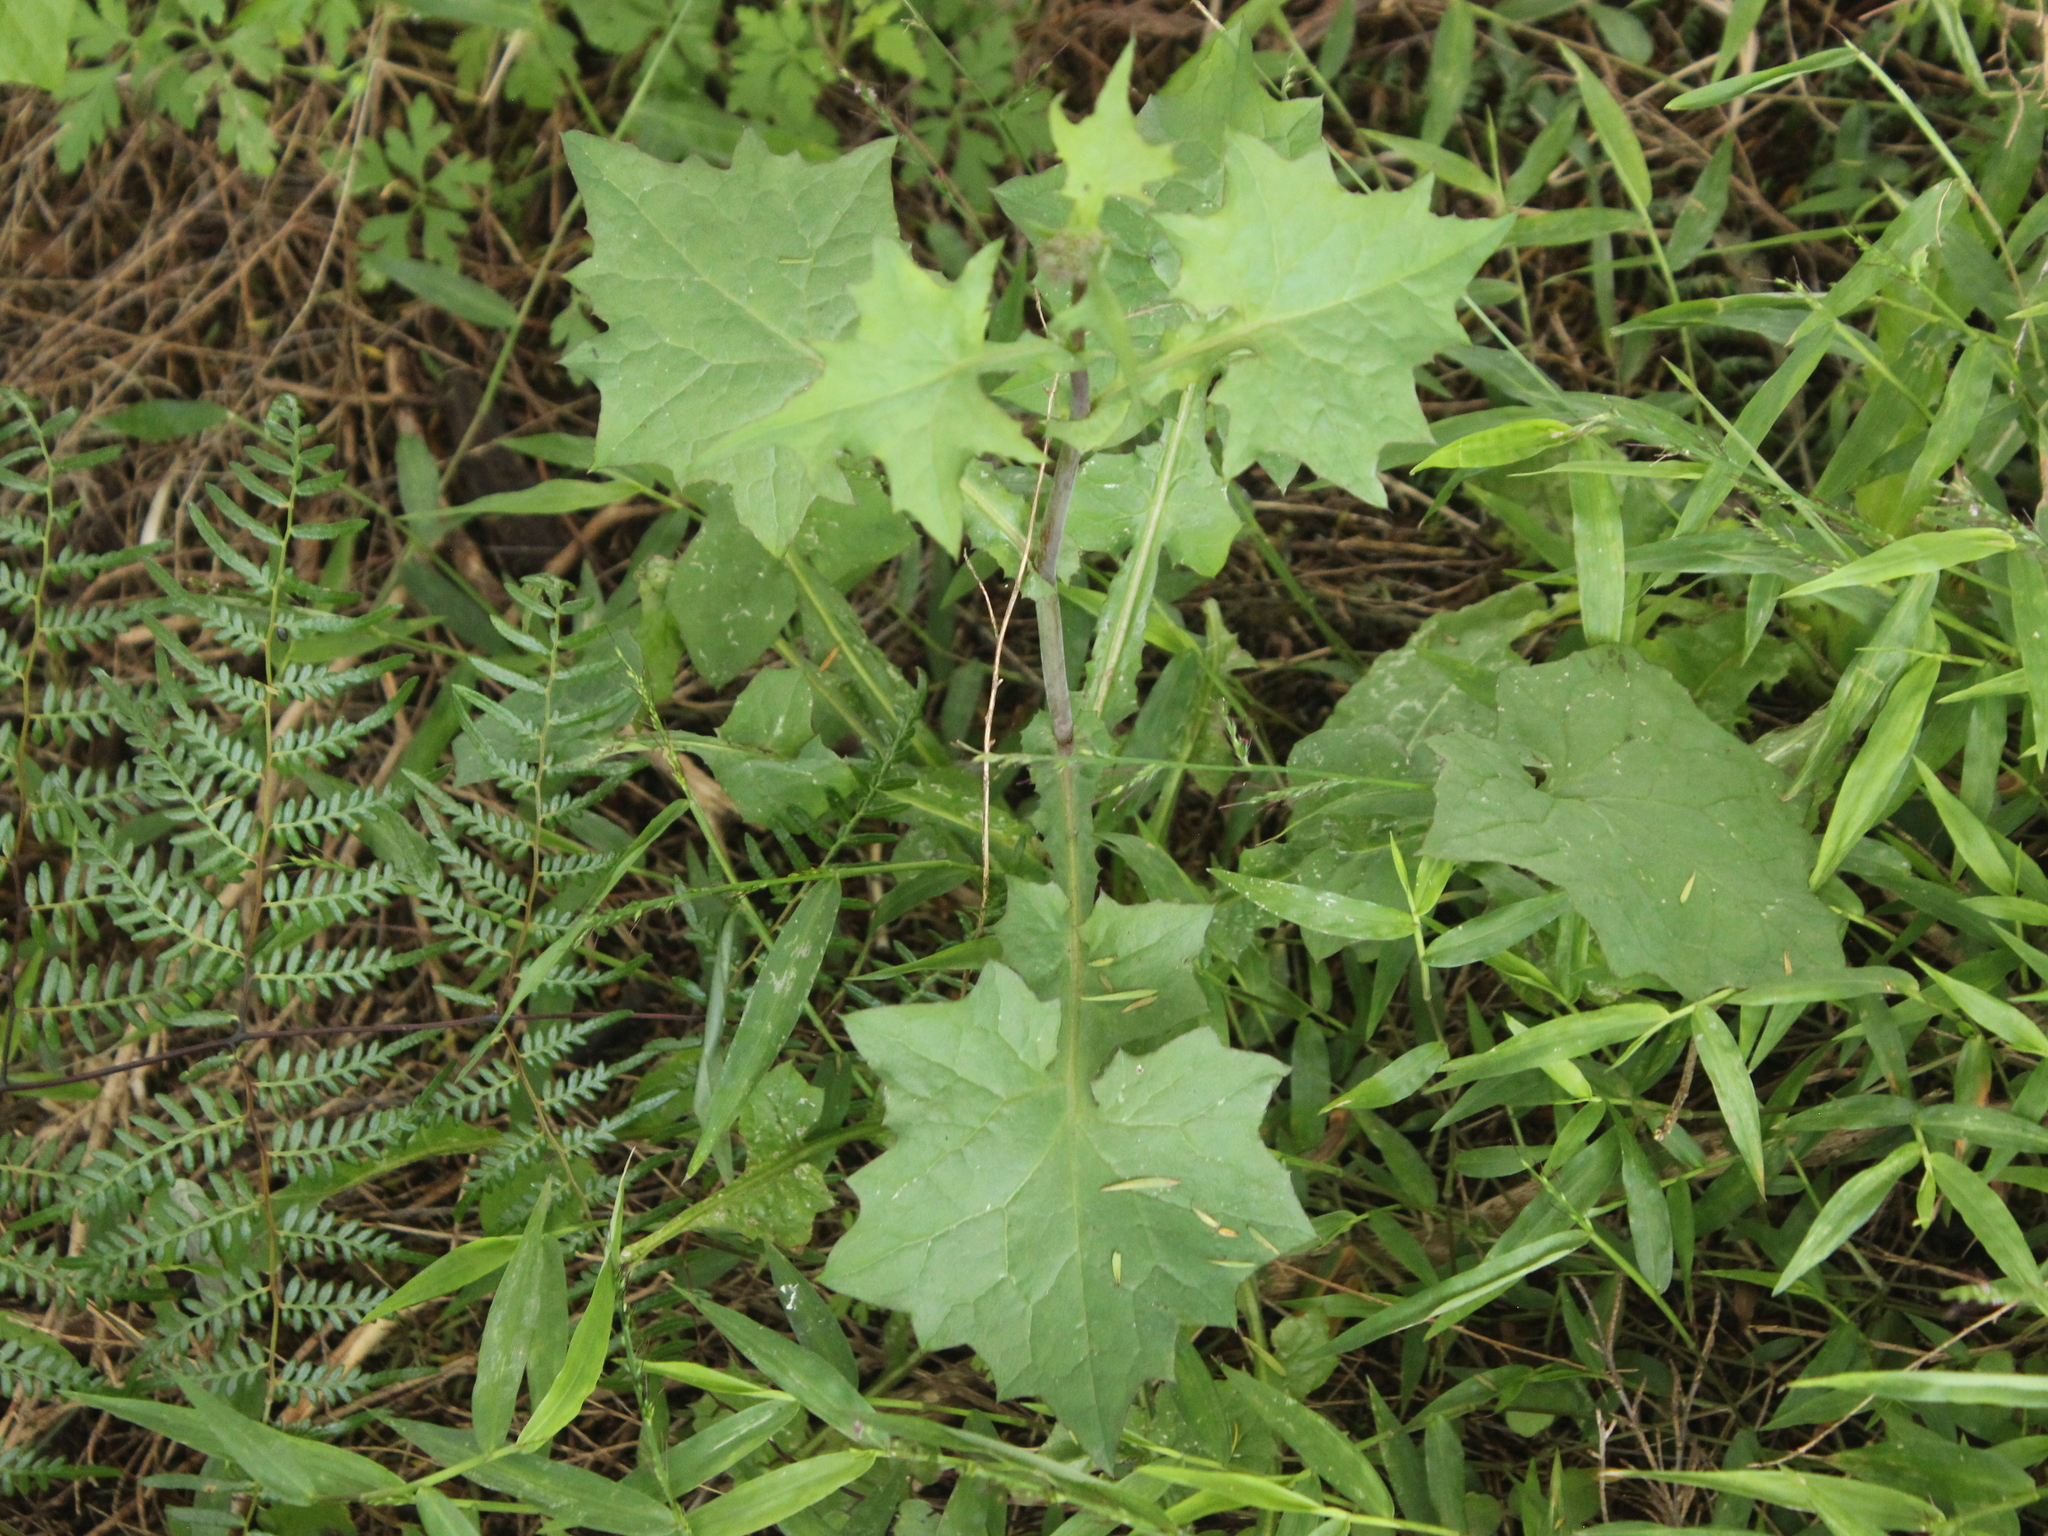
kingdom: Plantae
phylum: Tracheophyta
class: Magnoliopsida
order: Asterales
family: Asteraceae
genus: Mycelis
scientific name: Mycelis muralis
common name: Wall lettuce
